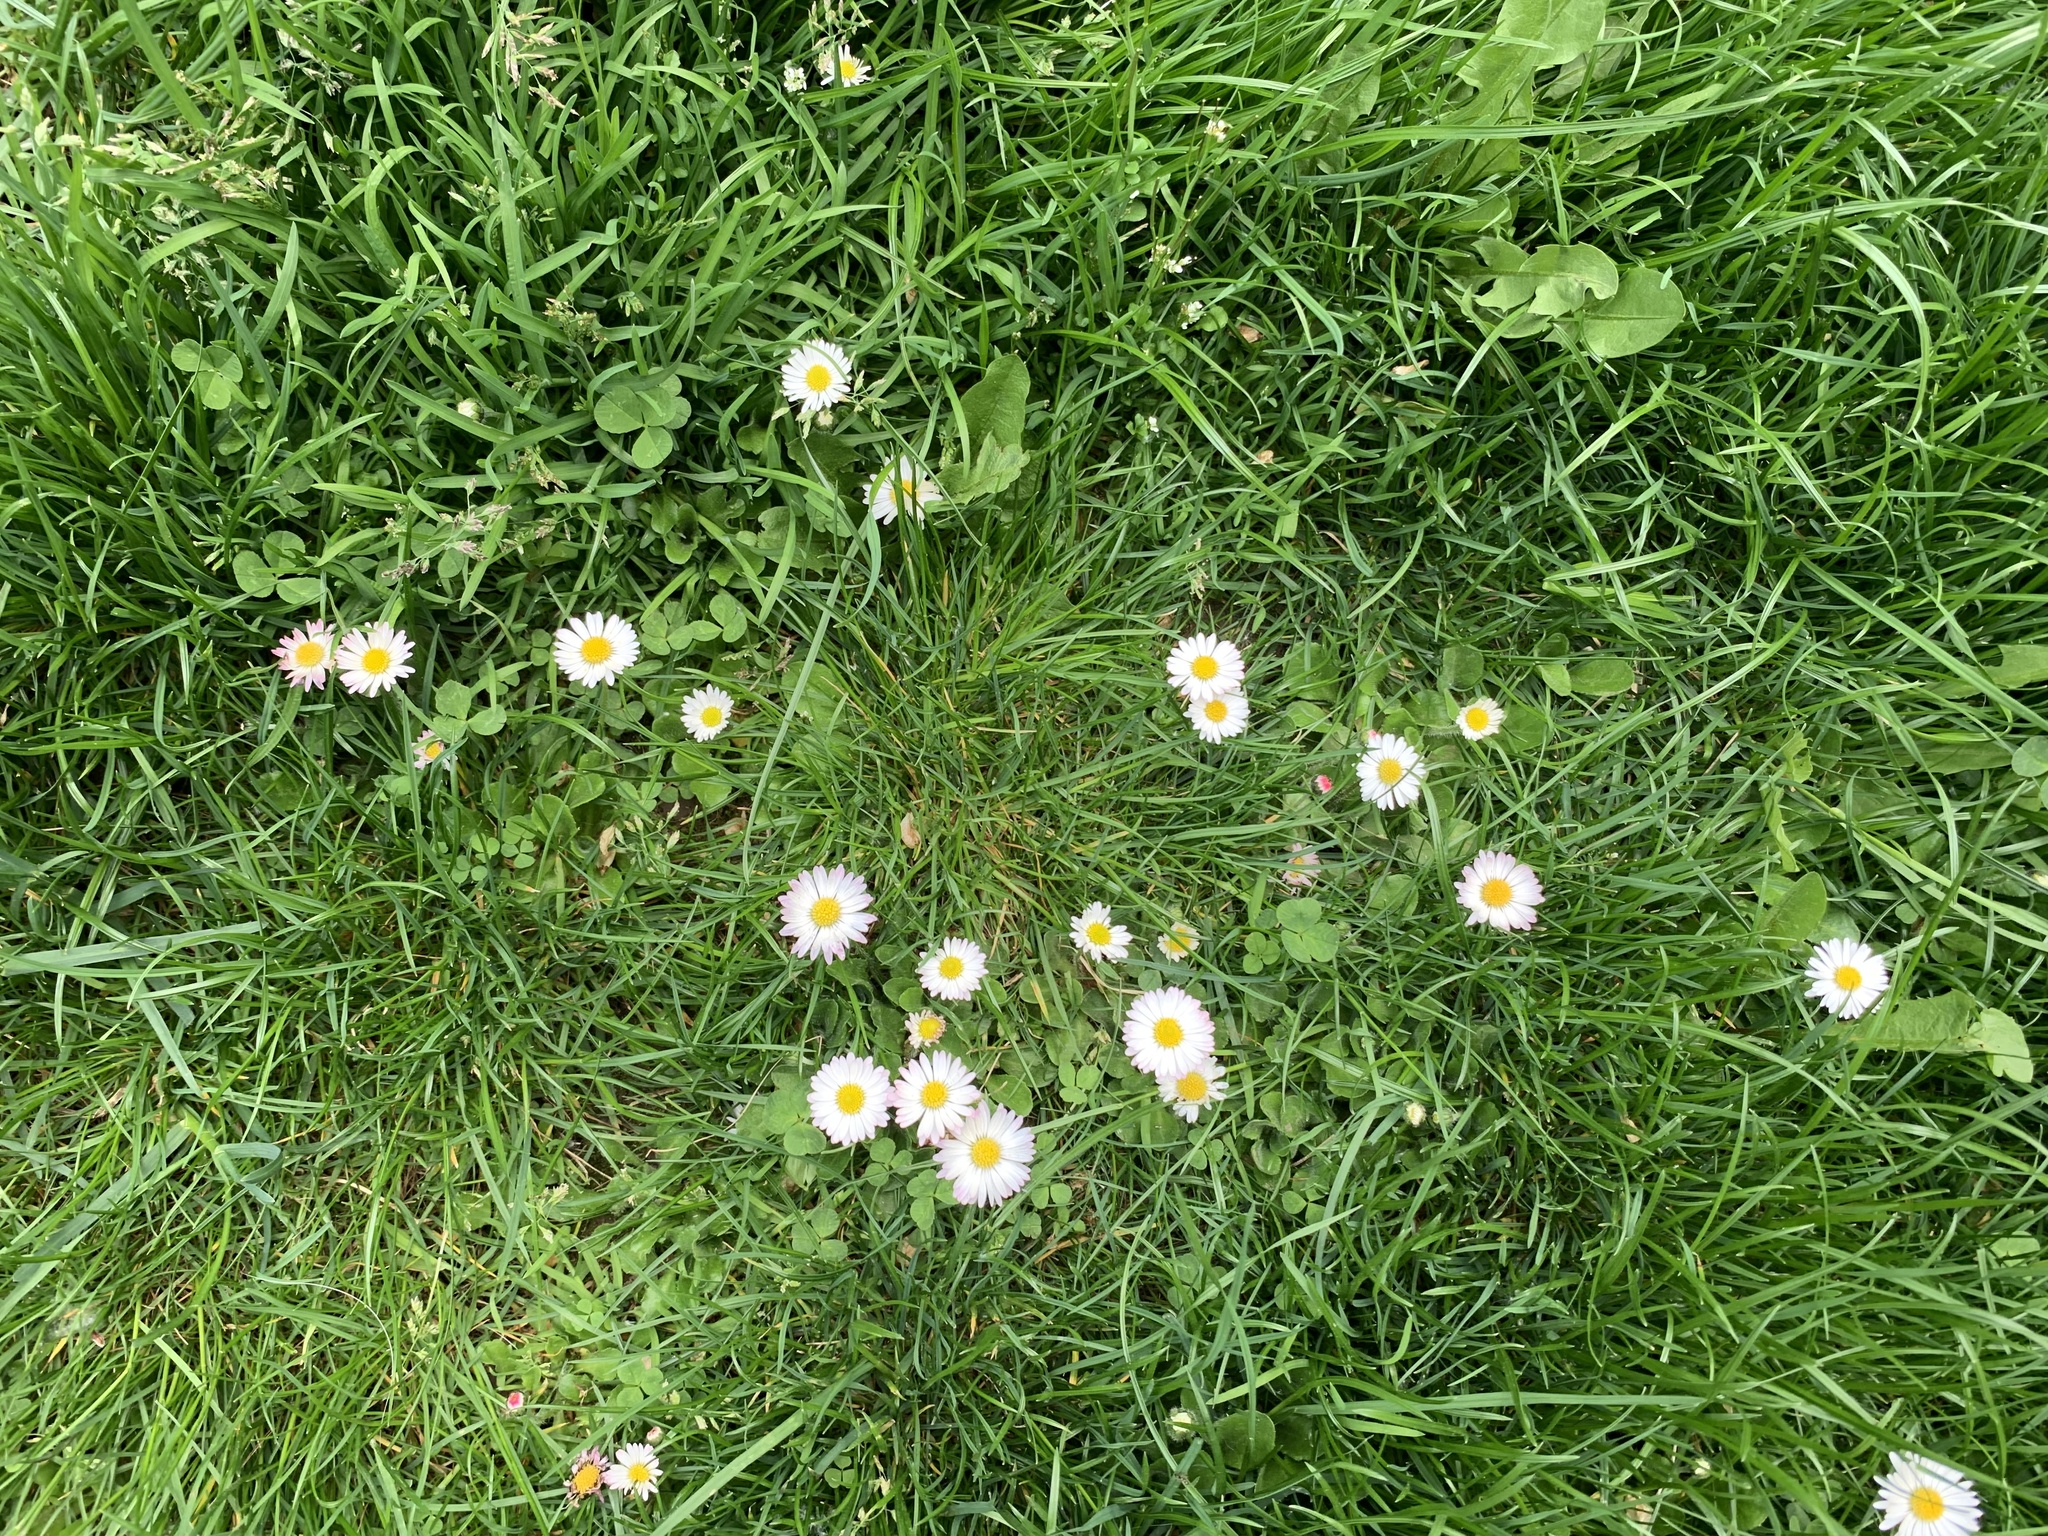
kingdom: Plantae
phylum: Tracheophyta
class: Magnoliopsida
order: Asterales
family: Asteraceae
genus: Bellis
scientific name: Bellis perennis
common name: Lawndaisy
